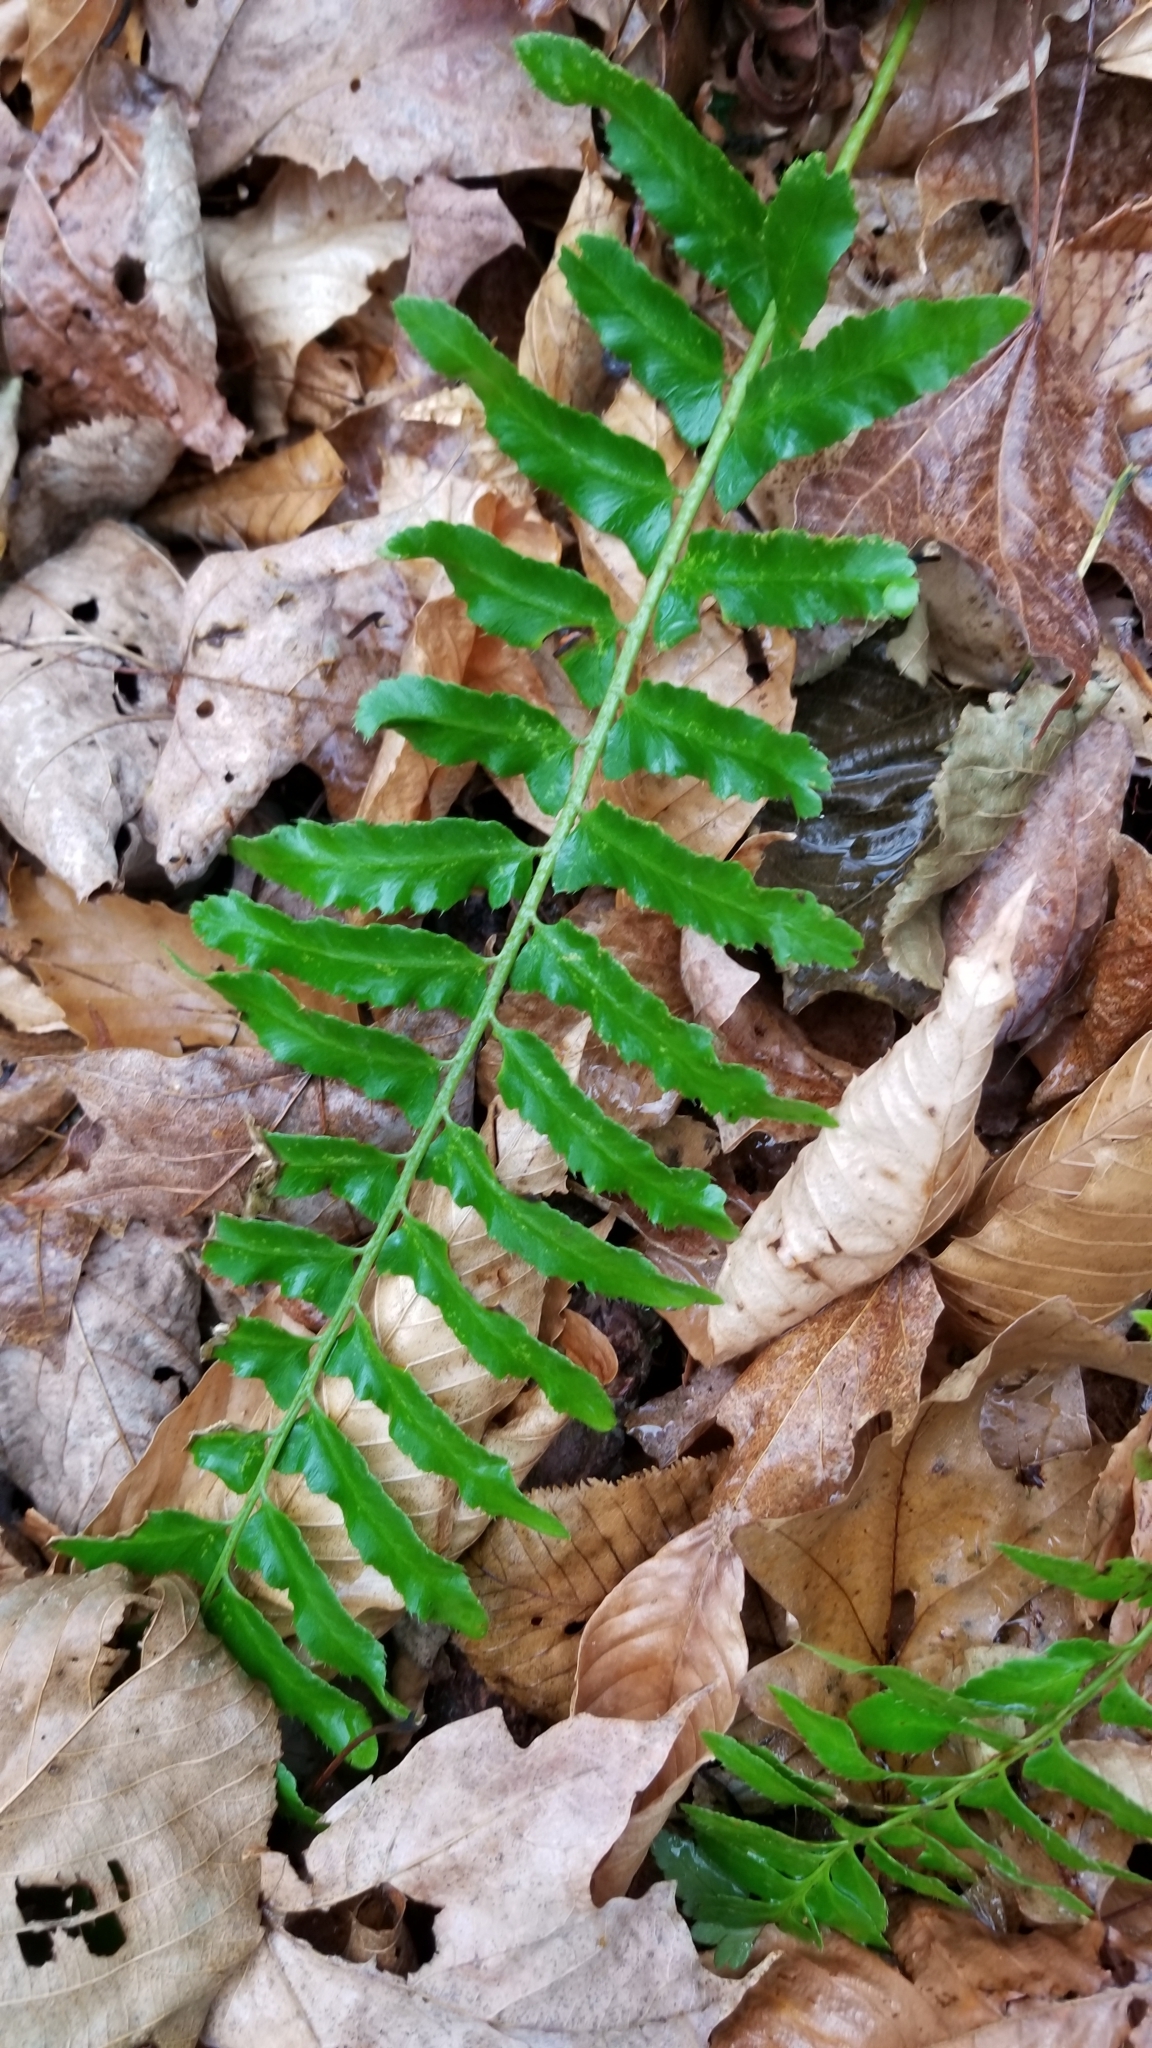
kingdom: Plantae
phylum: Tracheophyta
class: Polypodiopsida
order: Polypodiales
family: Dryopteridaceae
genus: Polystichum
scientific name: Polystichum acrostichoides
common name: Christmas fern
